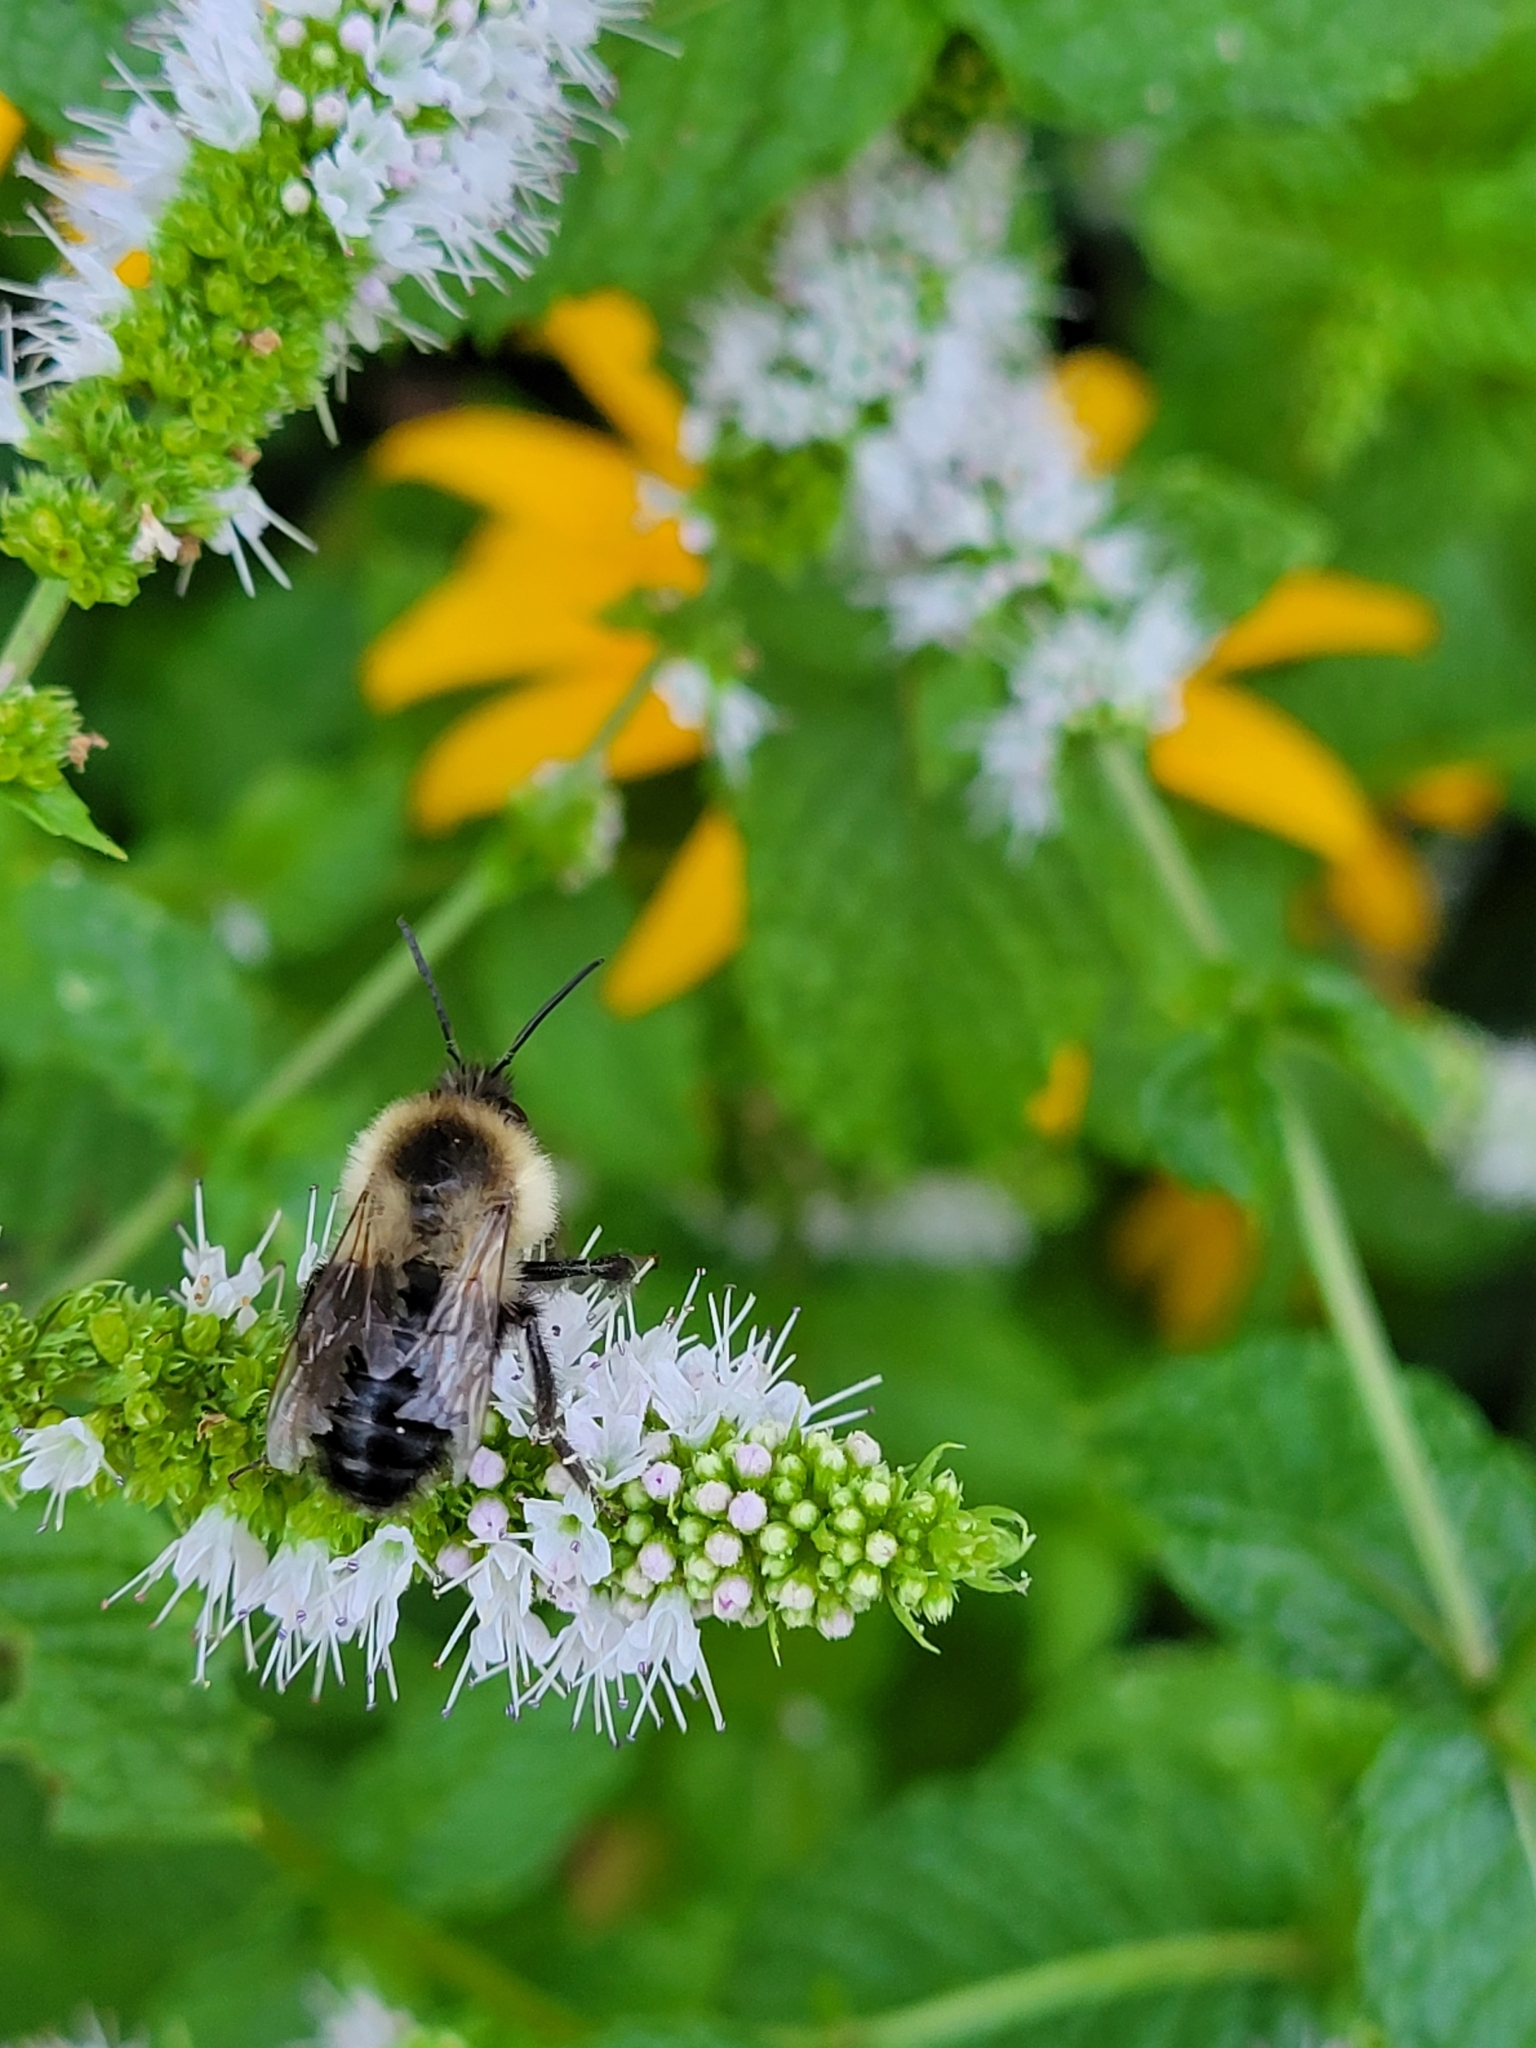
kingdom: Animalia
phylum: Arthropoda
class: Insecta
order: Hymenoptera
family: Apidae
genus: Bombus
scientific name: Bombus impatiens
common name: Common eastern bumble bee
